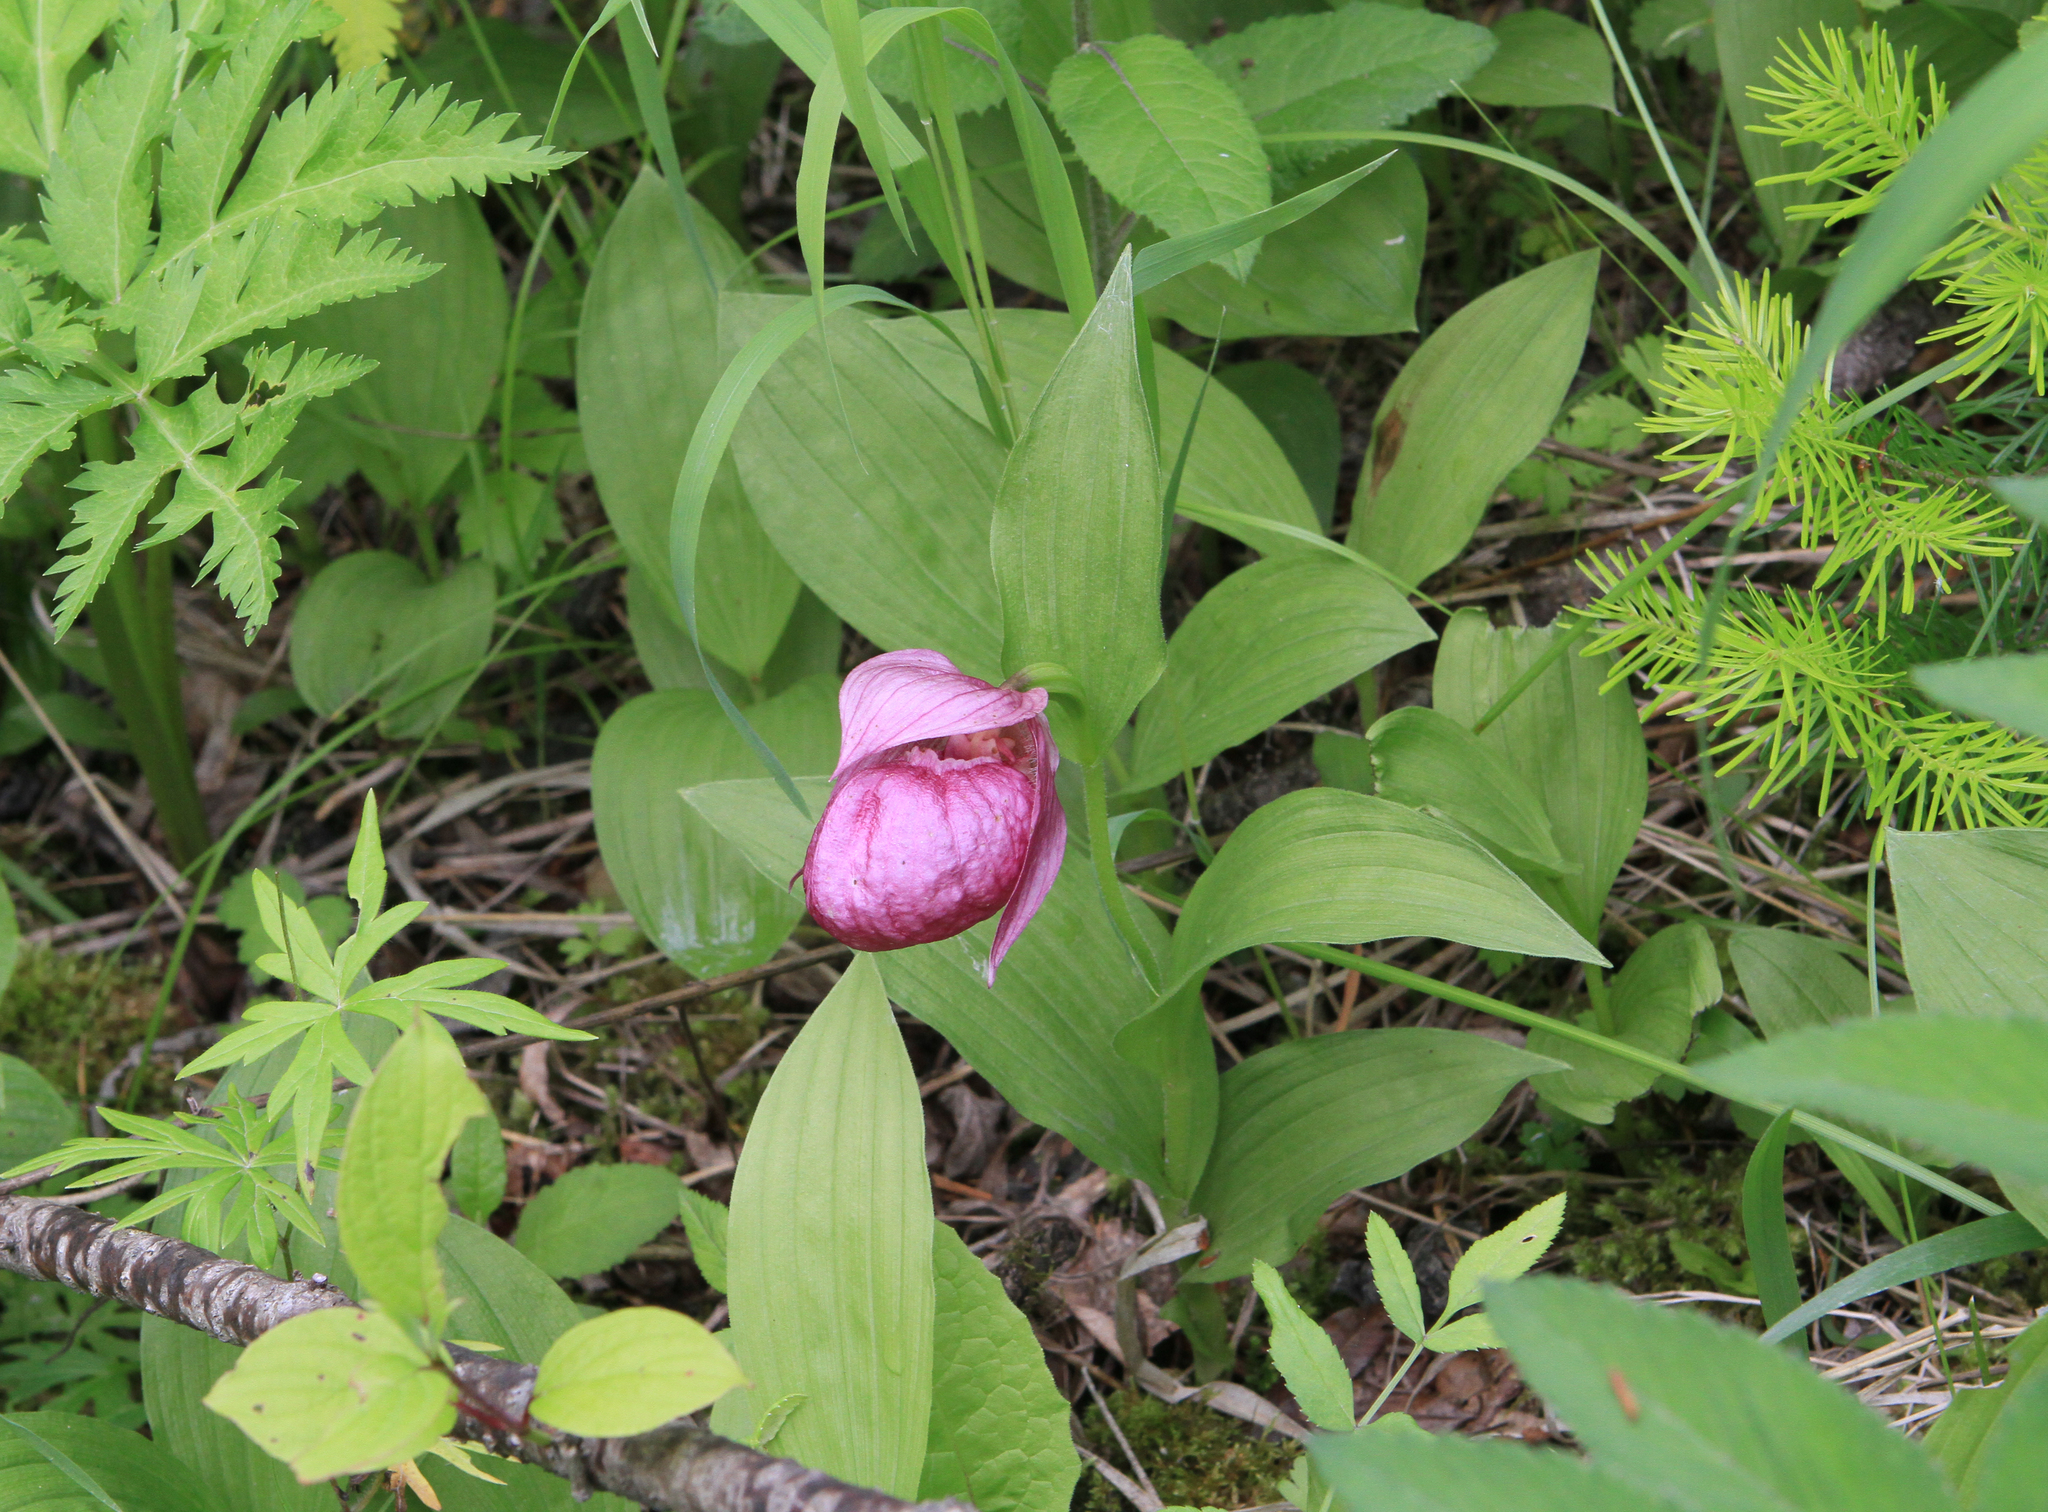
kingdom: Plantae
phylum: Tracheophyta
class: Liliopsida
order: Asparagales
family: Orchidaceae
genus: Cypripedium
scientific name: Cypripedium macranthos
